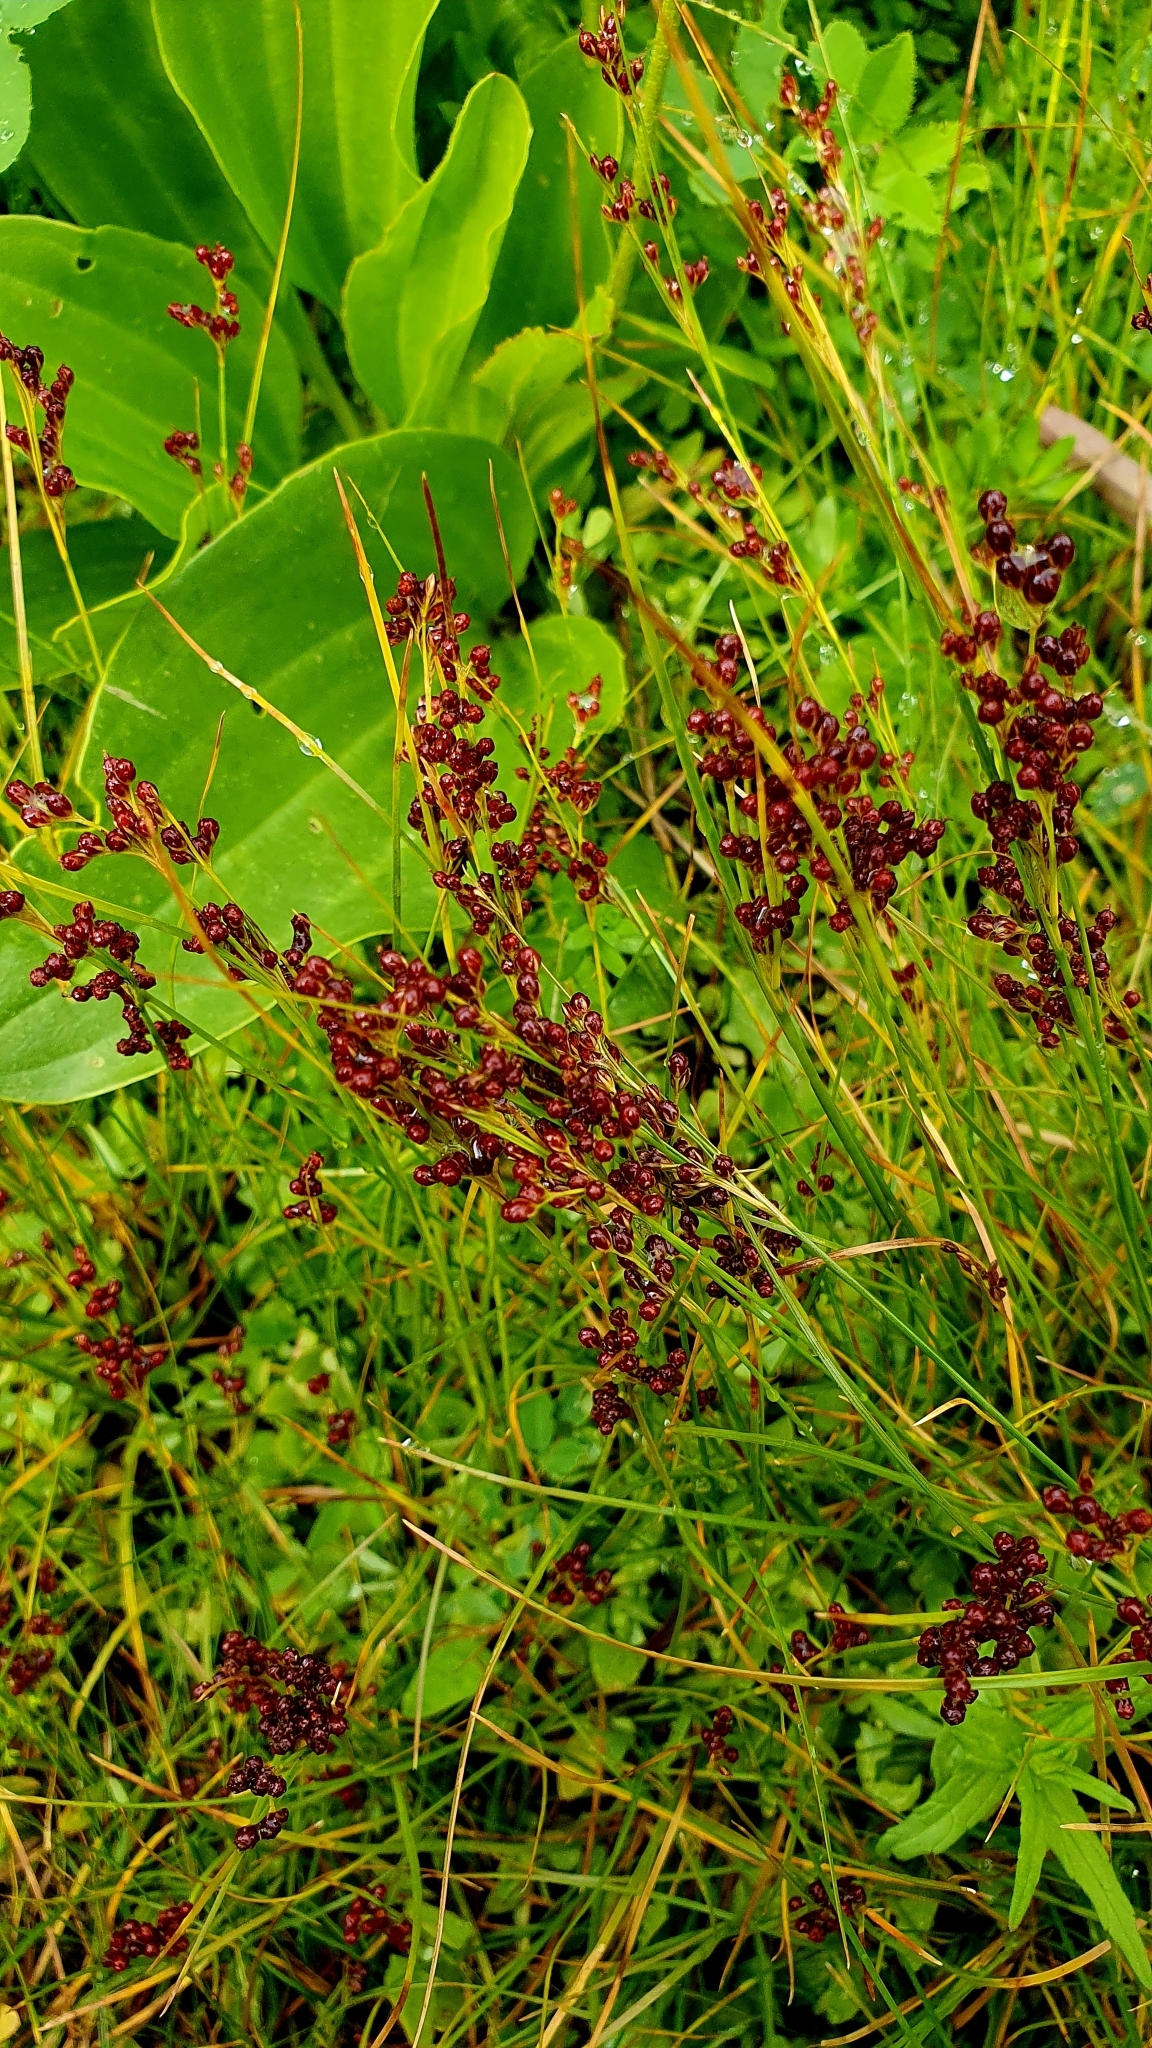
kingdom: Plantae
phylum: Tracheophyta
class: Liliopsida
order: Poales
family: Juncaceae
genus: Juncus
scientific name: Juncus compressus
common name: Round-fruited rush
